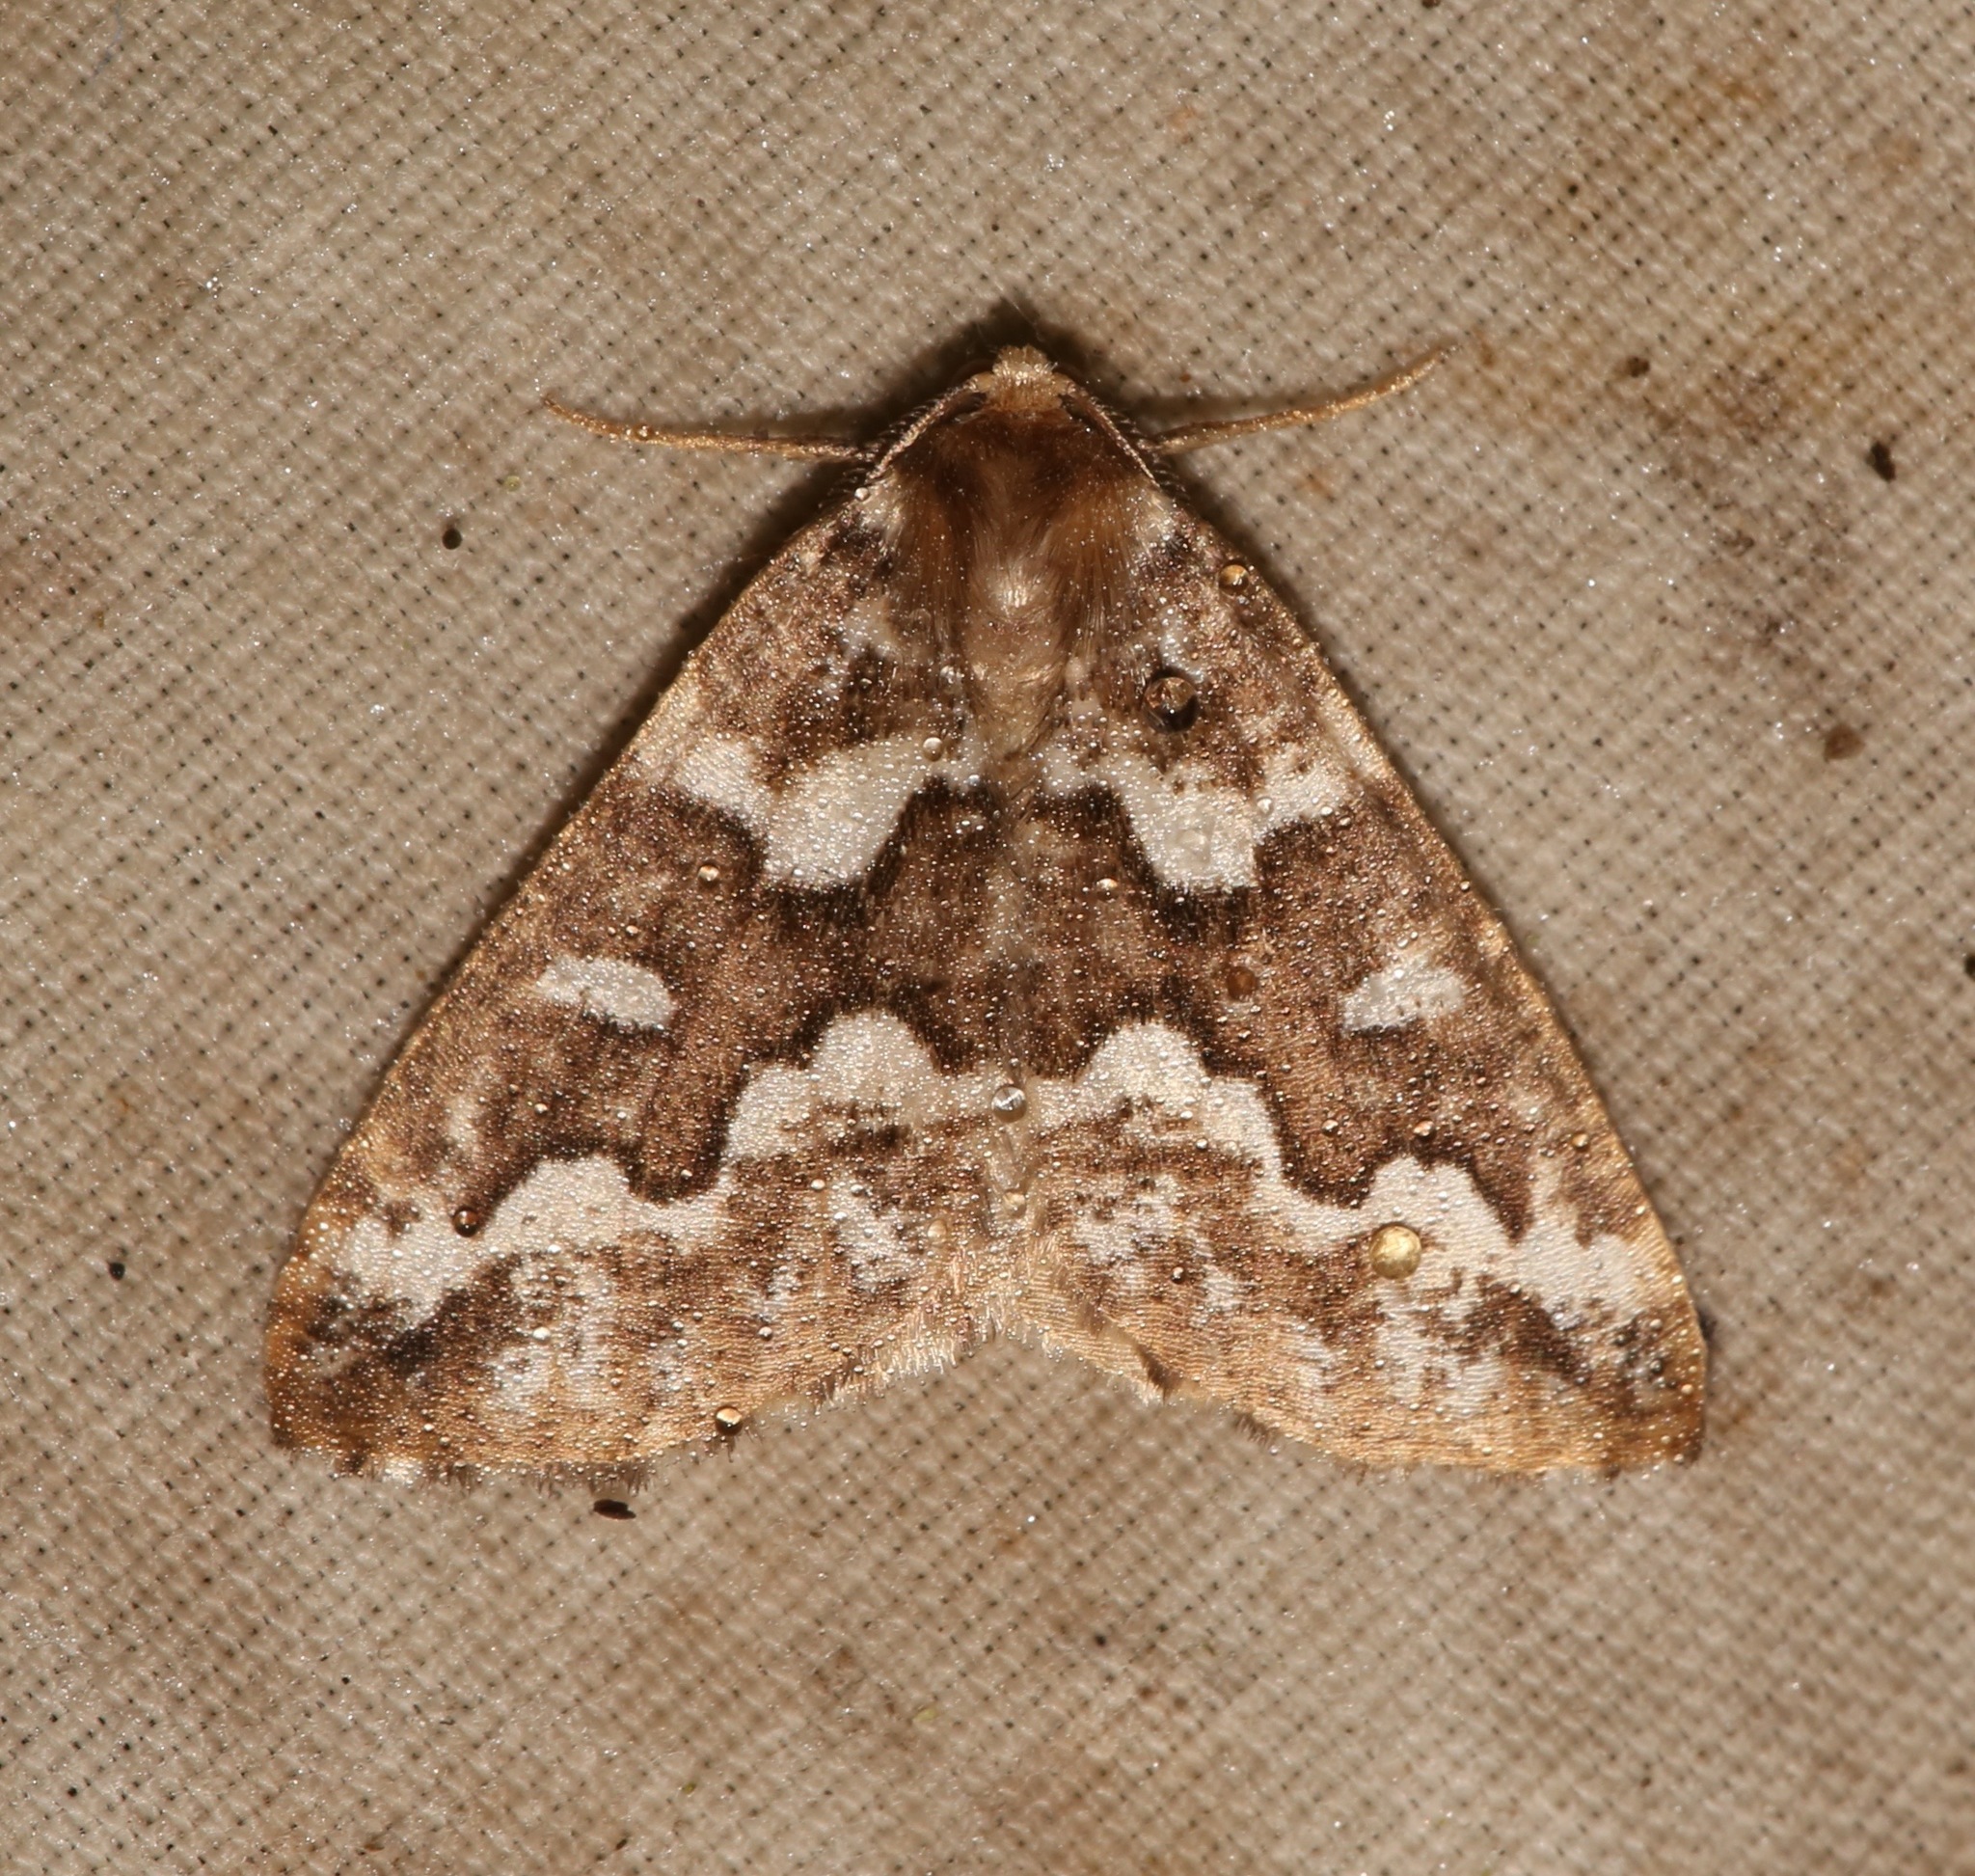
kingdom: Animalia
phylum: Arthropoda
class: Insecta
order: Lepidoptera
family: Geometridae
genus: Caripeta
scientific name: Caripeta divisata
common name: Gray spruce looper
